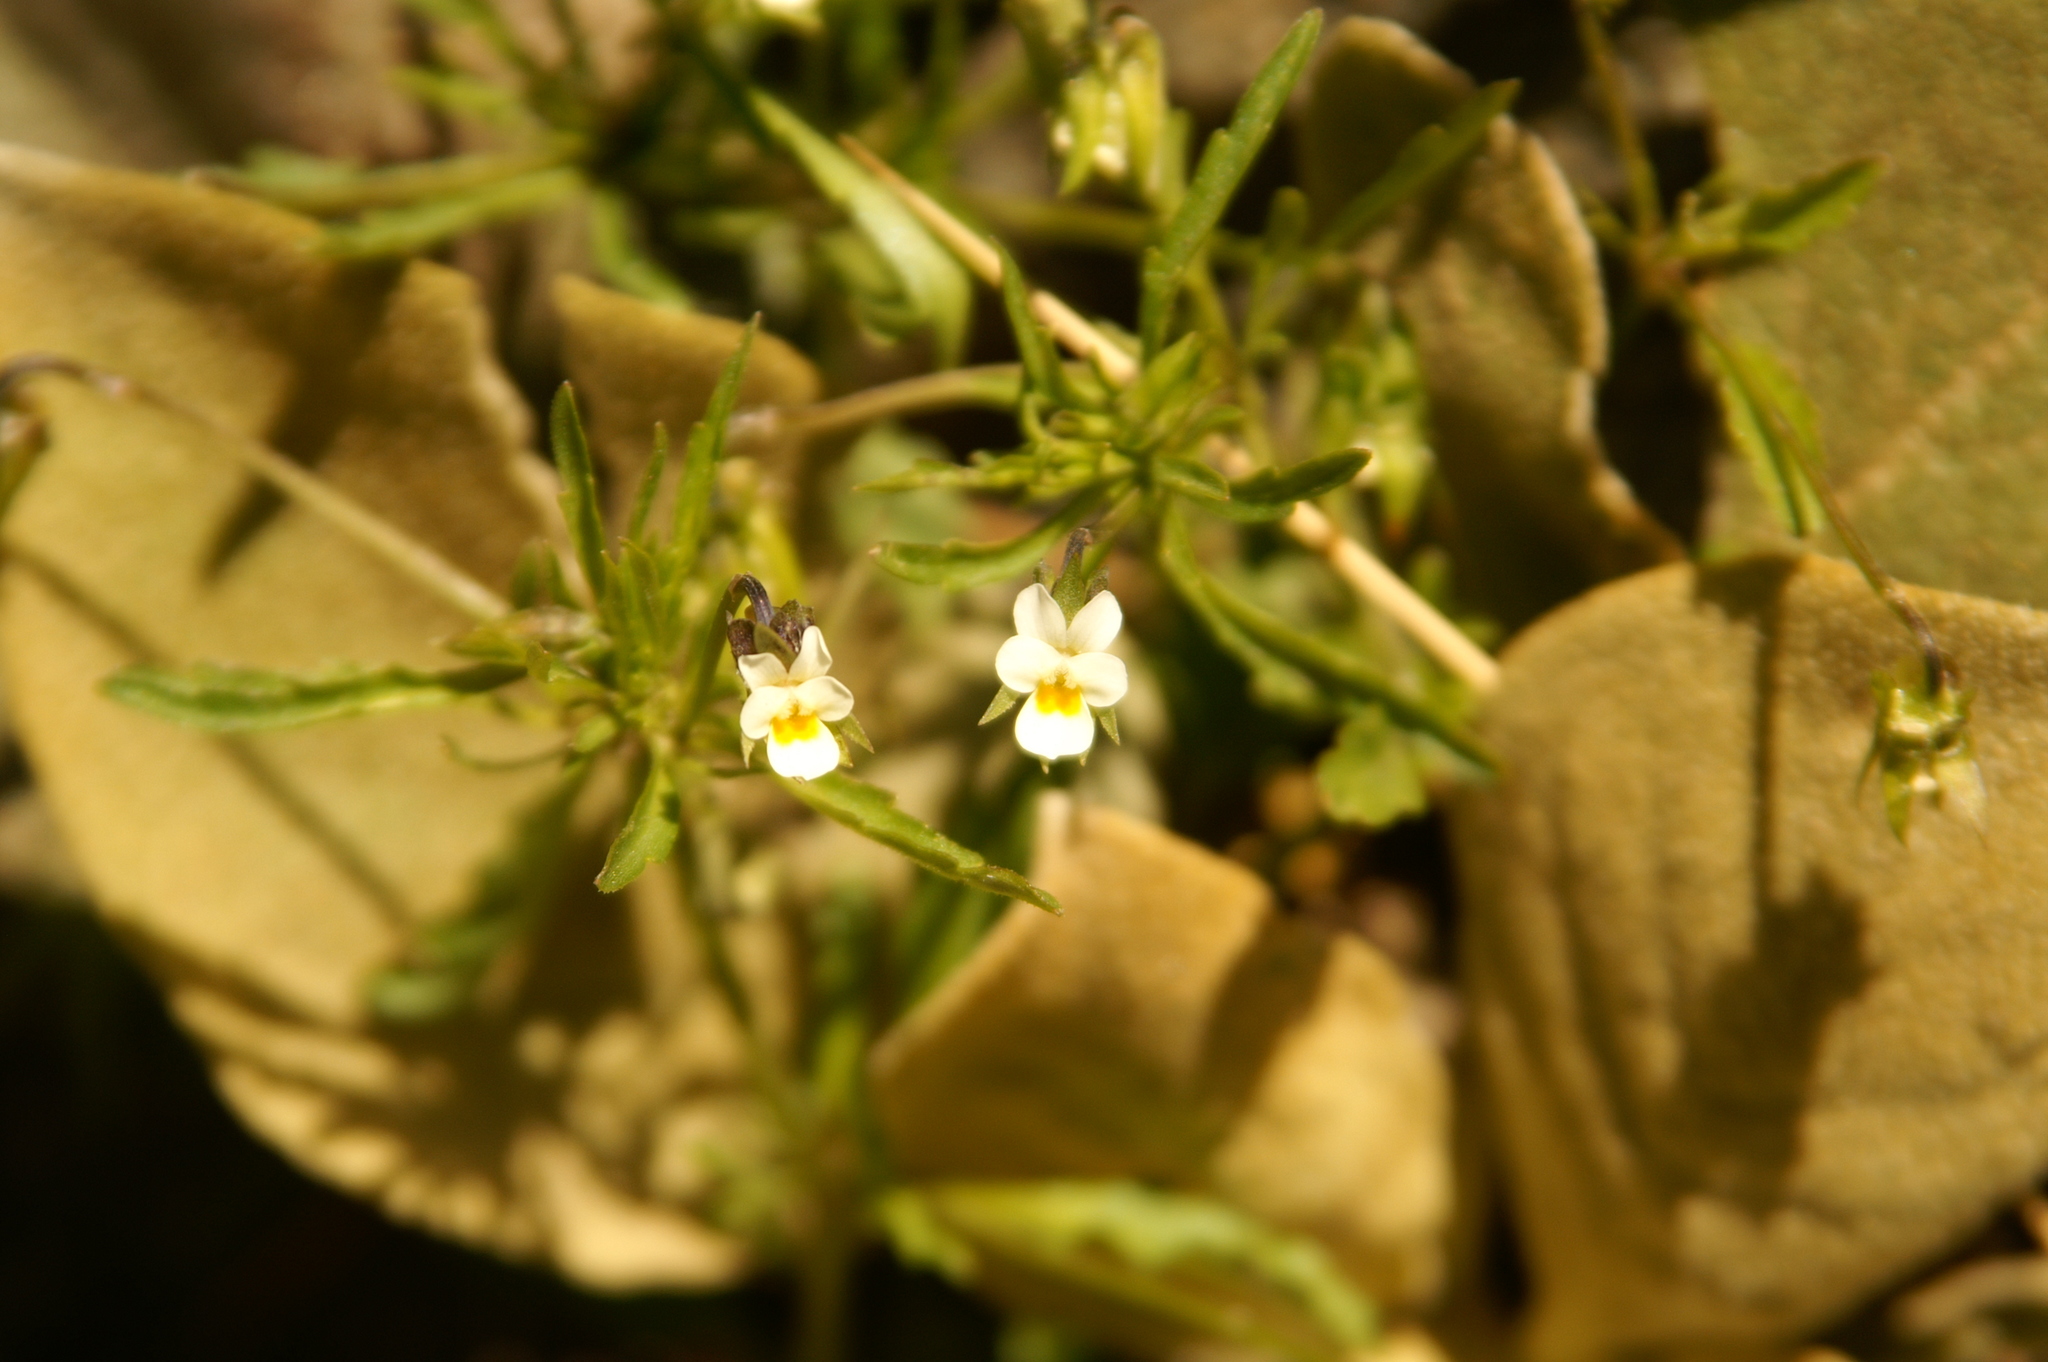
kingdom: Plantae
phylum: Tracheophyta
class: Magnoliopsida
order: Malpighiales
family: Violaceae
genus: Viola
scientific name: Viola arvensis
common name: Field pansy
